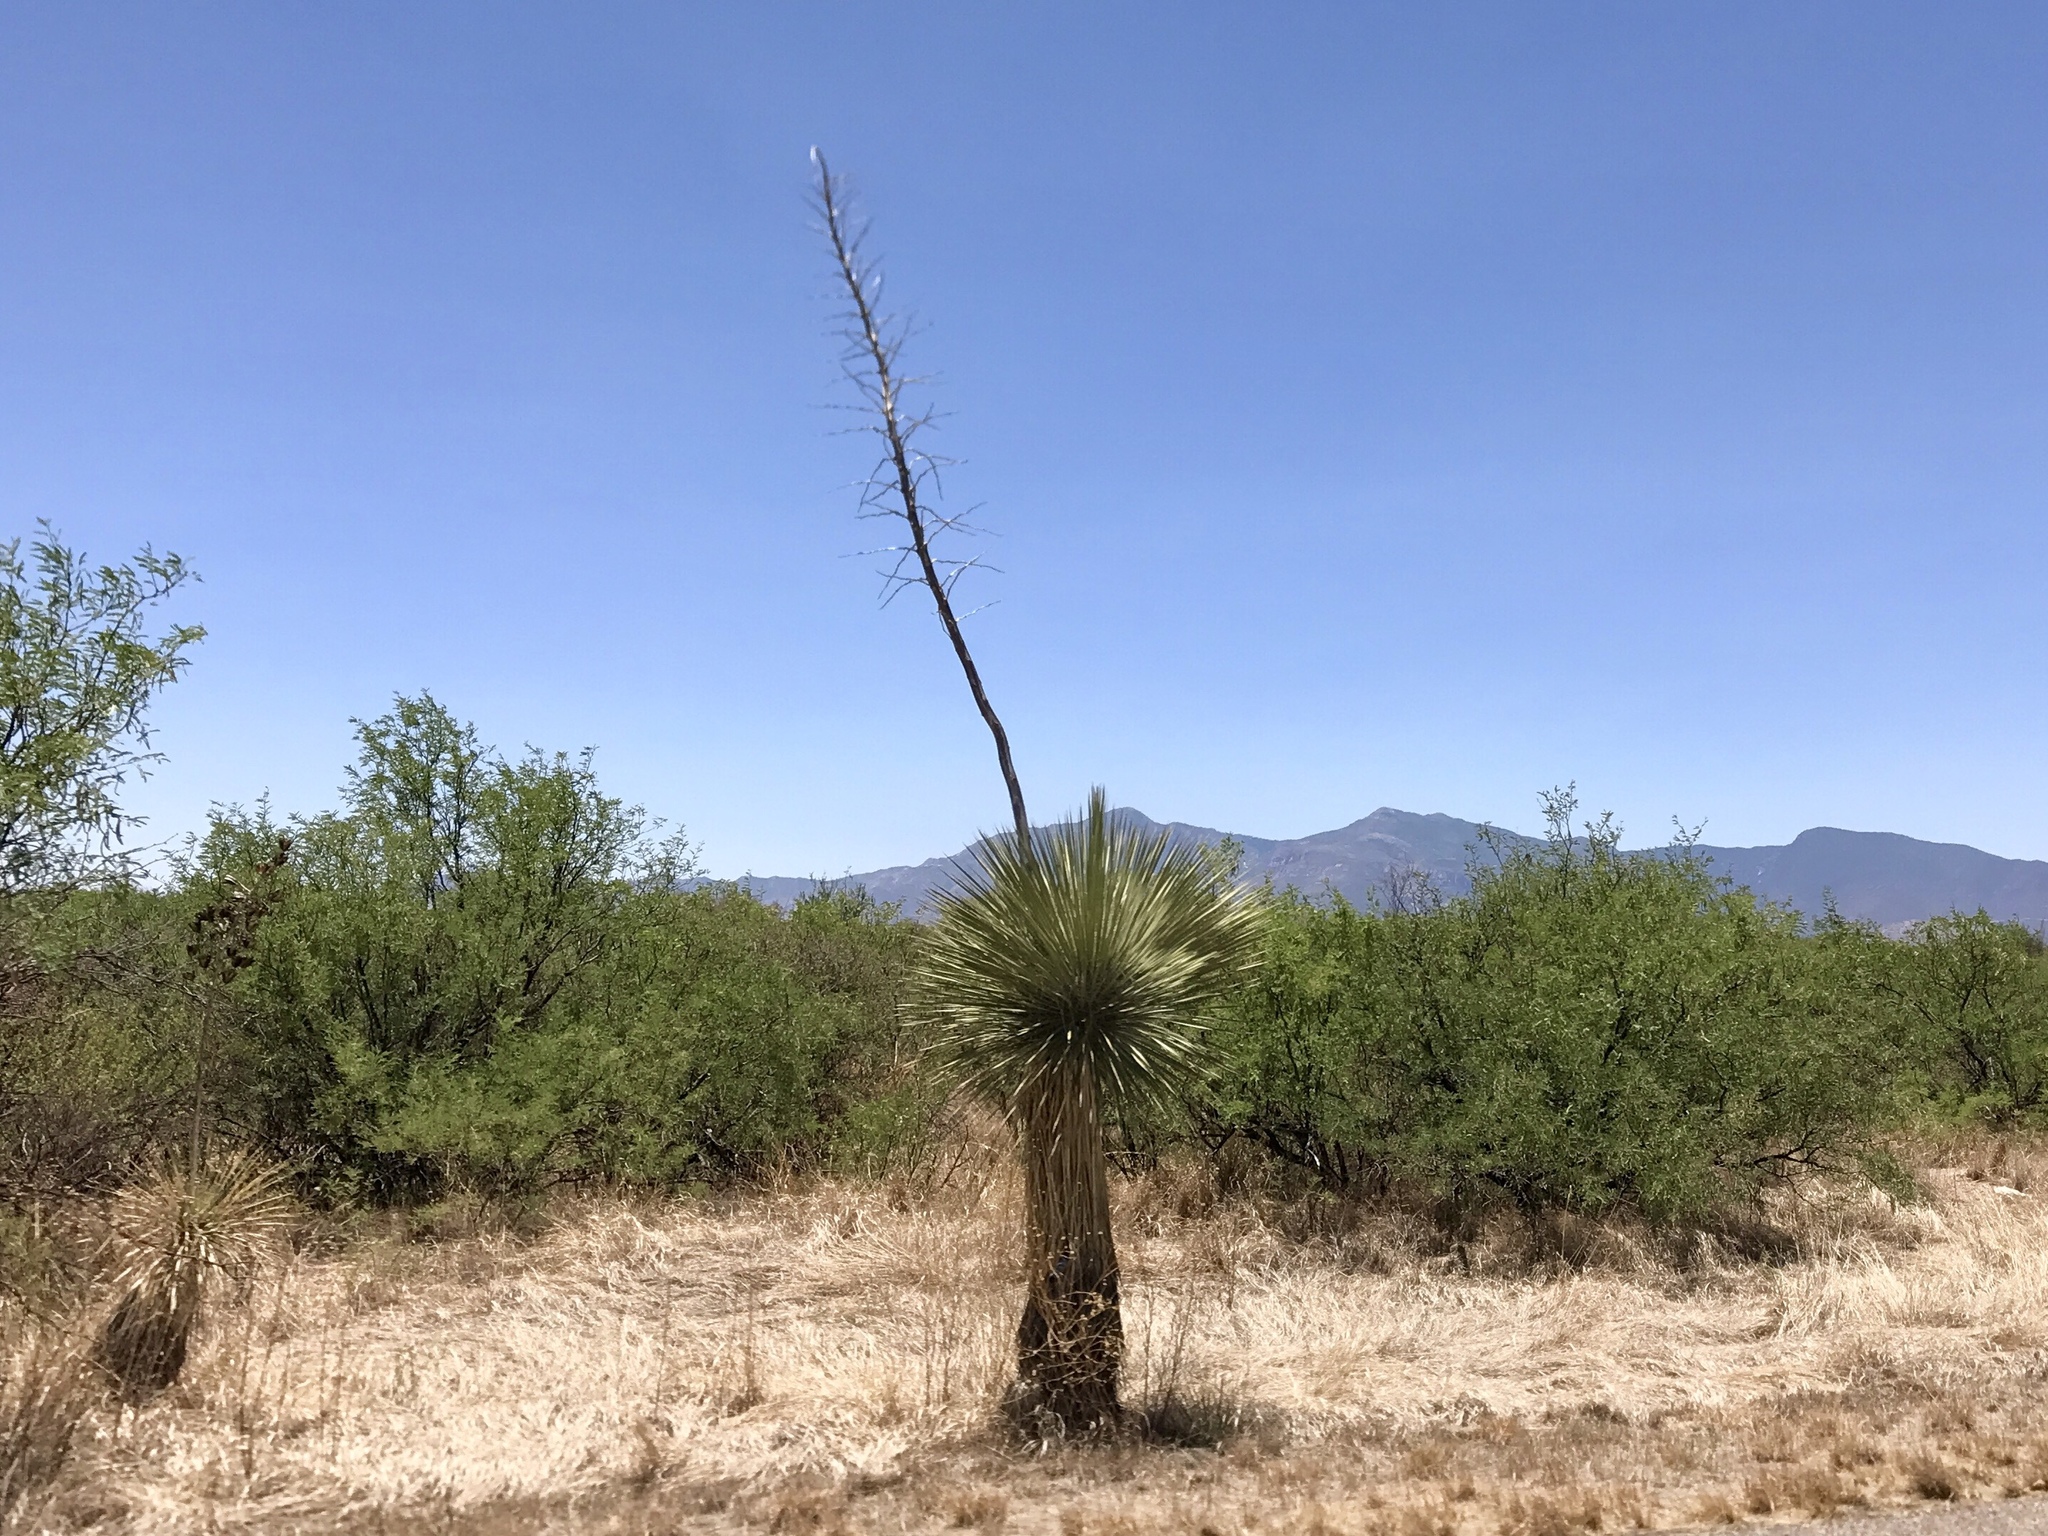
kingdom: Plantae
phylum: Tracheophyta
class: Liliopsida
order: Asparagales
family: Asparagaceae
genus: Yucca
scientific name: Yucca elata
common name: Palmella
